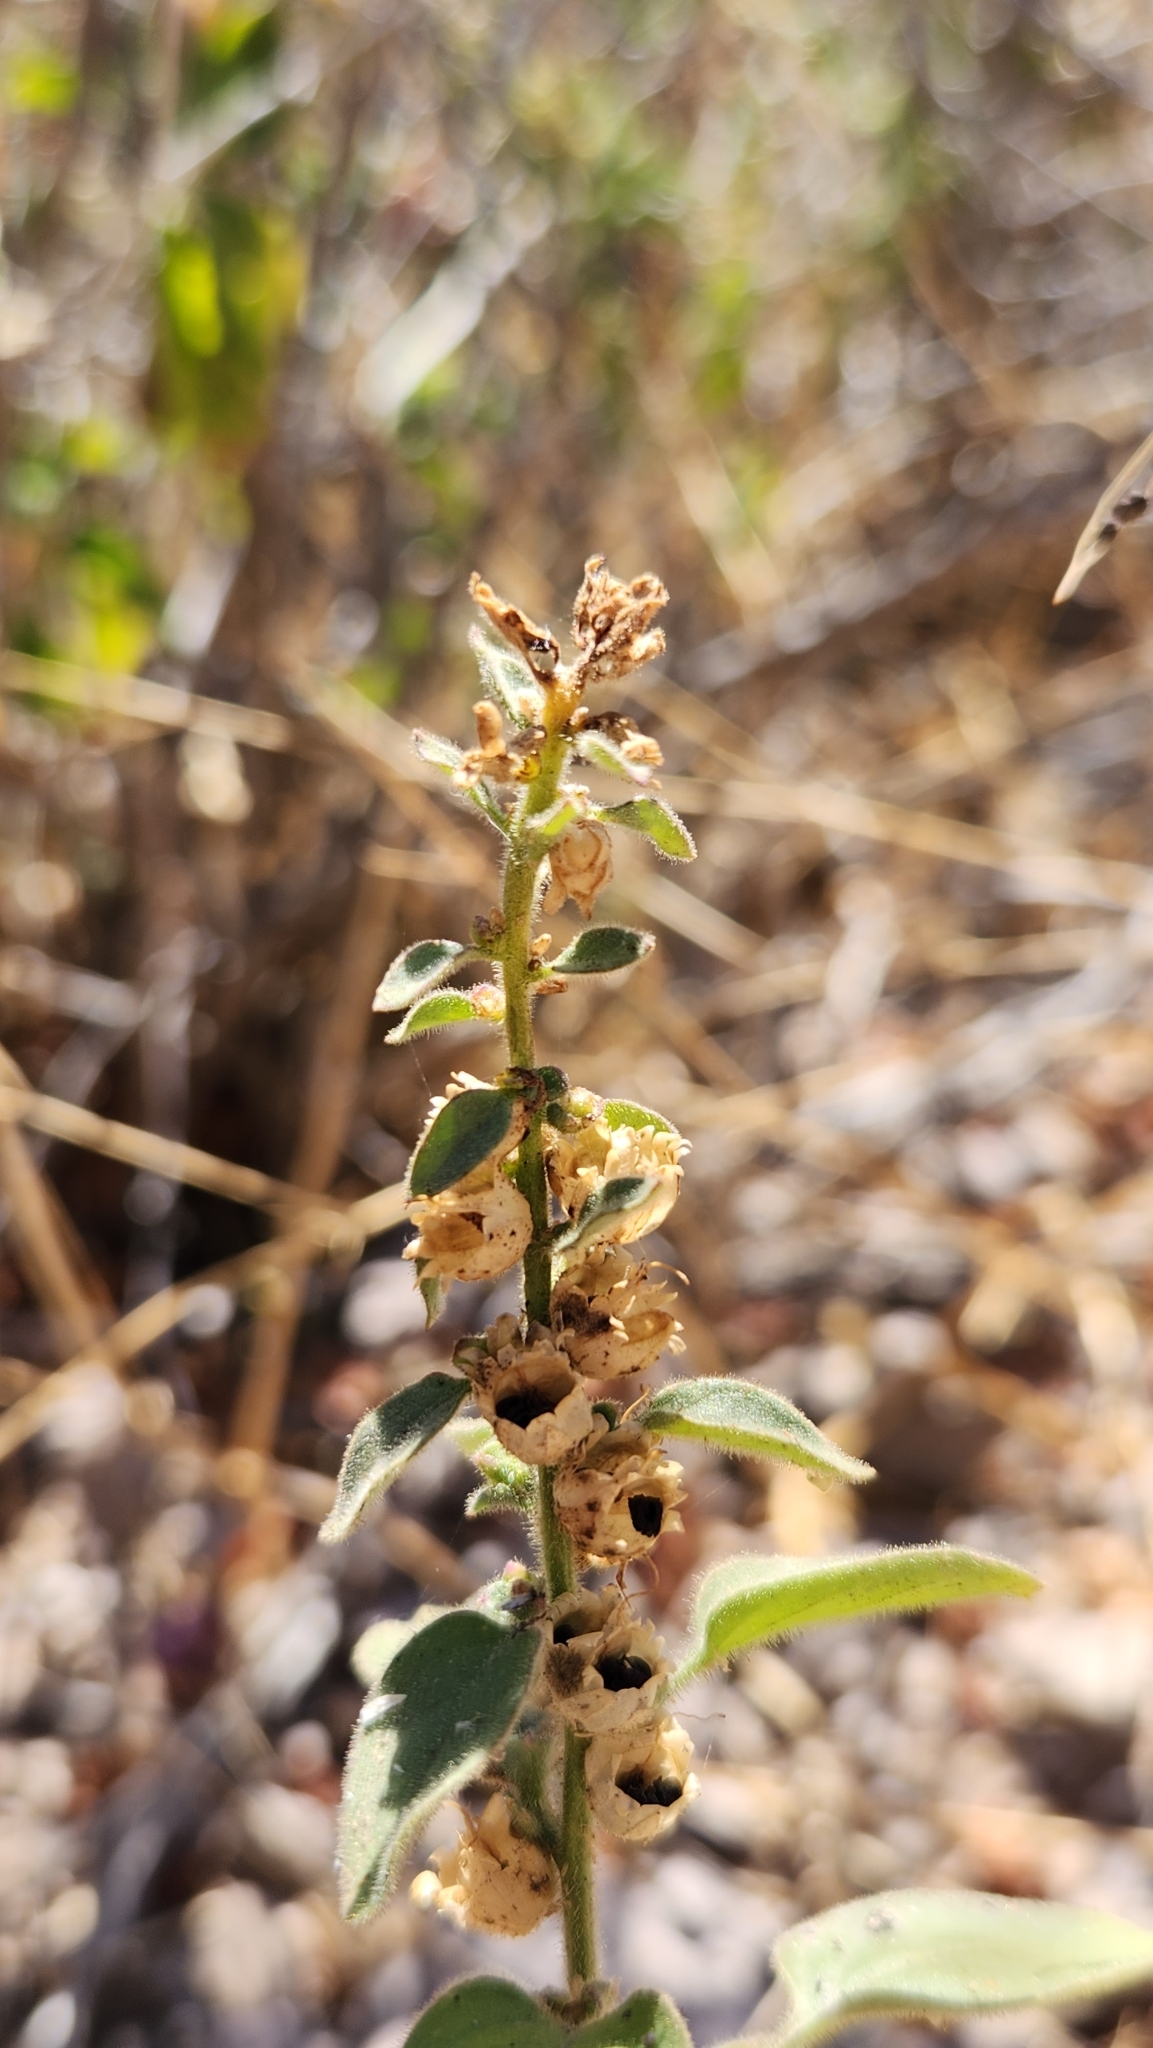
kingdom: Plantae
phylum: Tracheophyta
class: Magnoliopsida
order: Lamiales
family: Plantaginaceae
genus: Pseudorontium
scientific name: Pseudorontium cyathiferum
